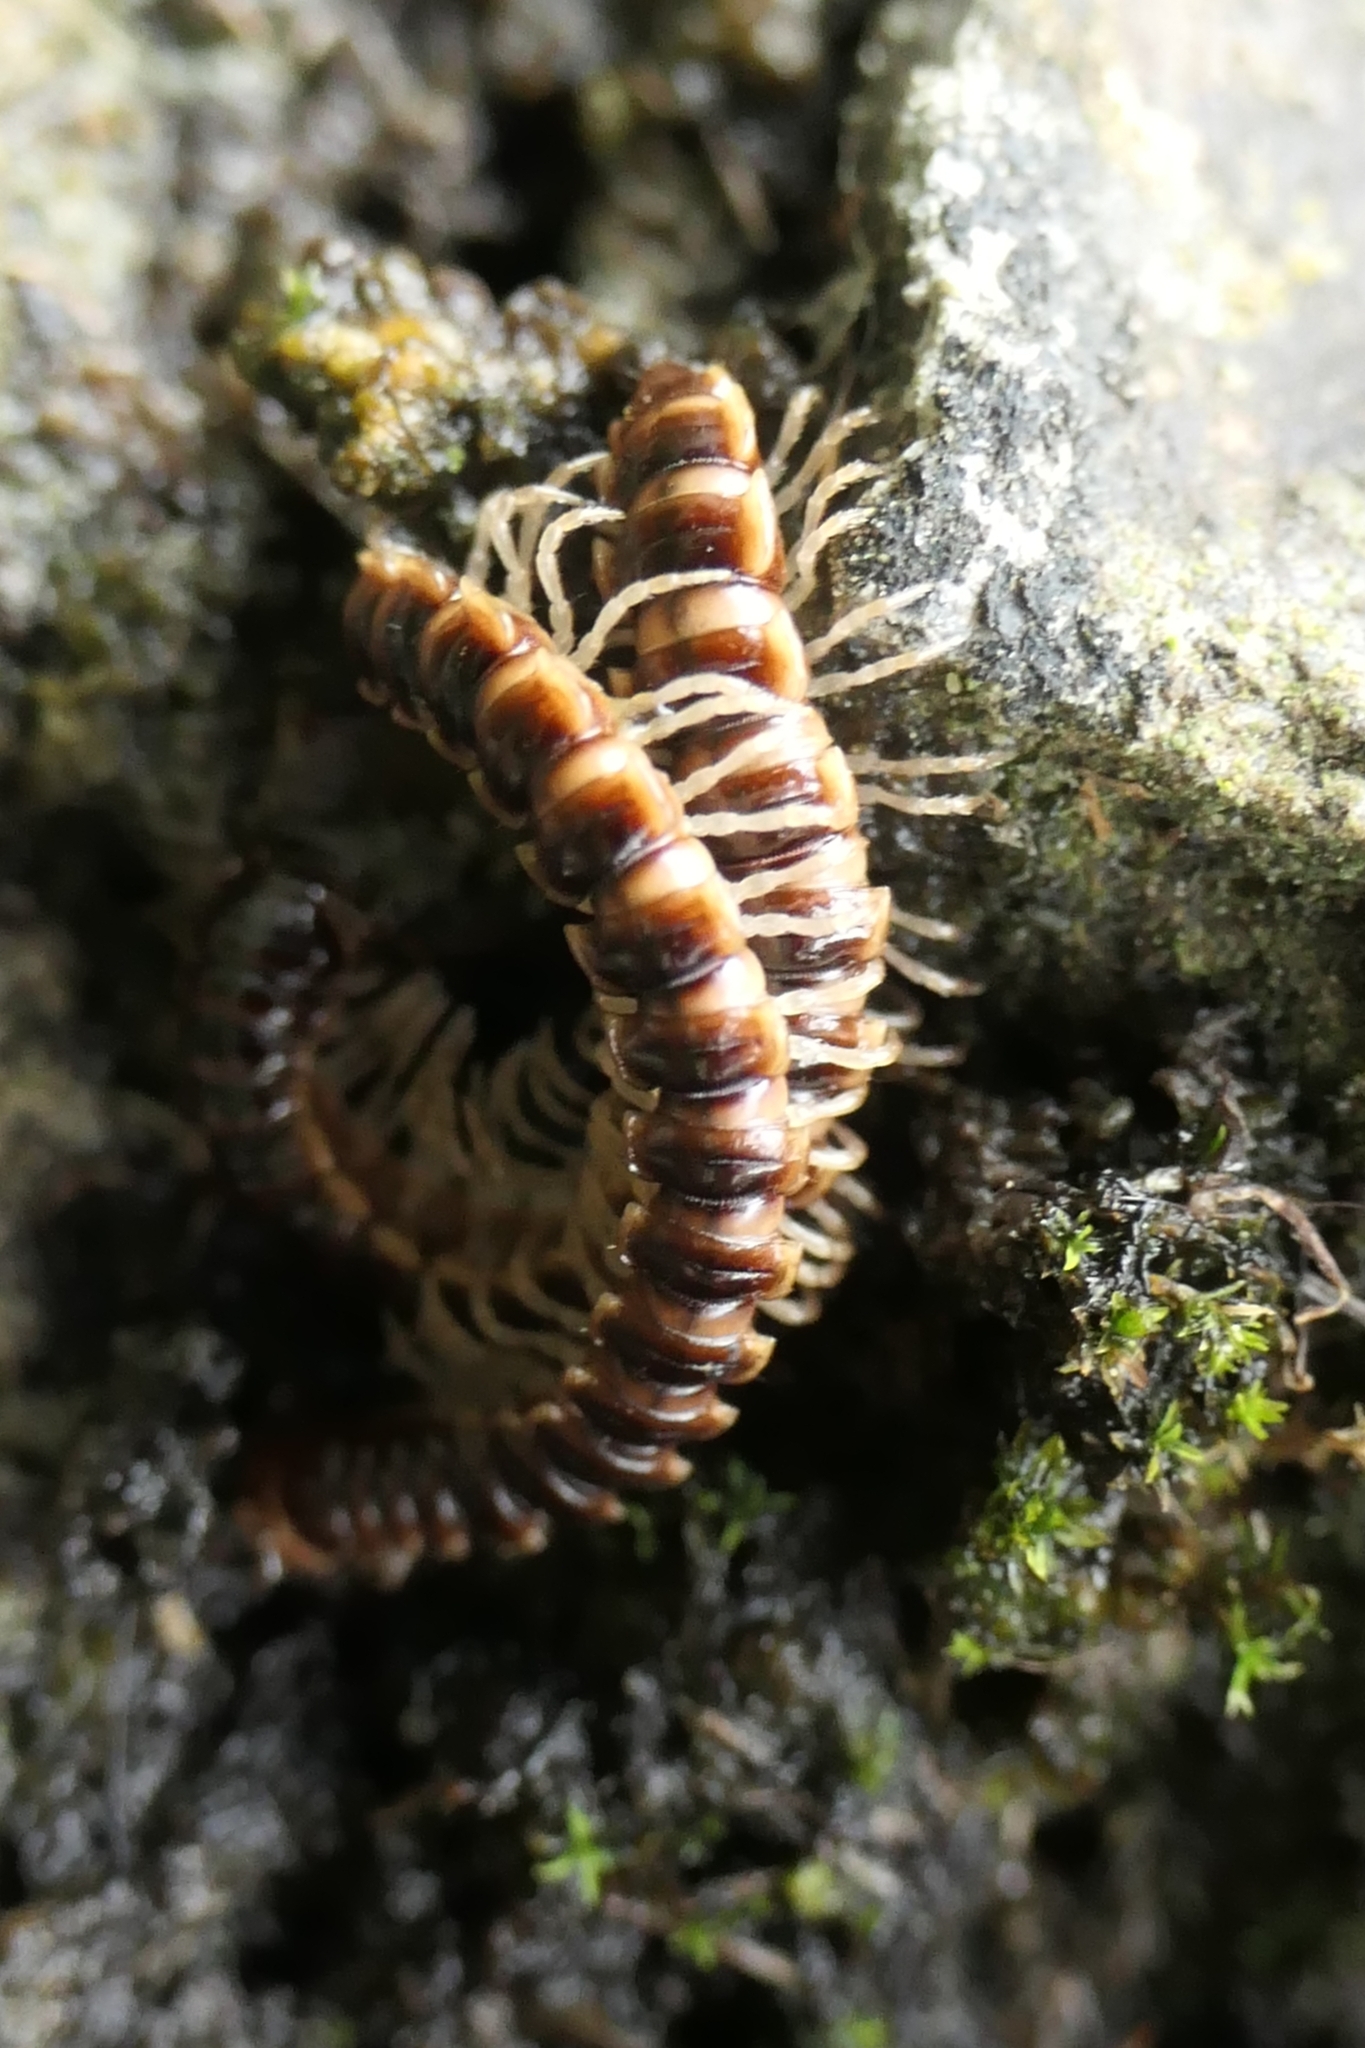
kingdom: Animalia
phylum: Arthropoda
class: Diplopoda
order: Polydesmida
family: Paradoxosomatidae
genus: Oxidus
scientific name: Oxidus gracilis
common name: Greenhouse millipede
